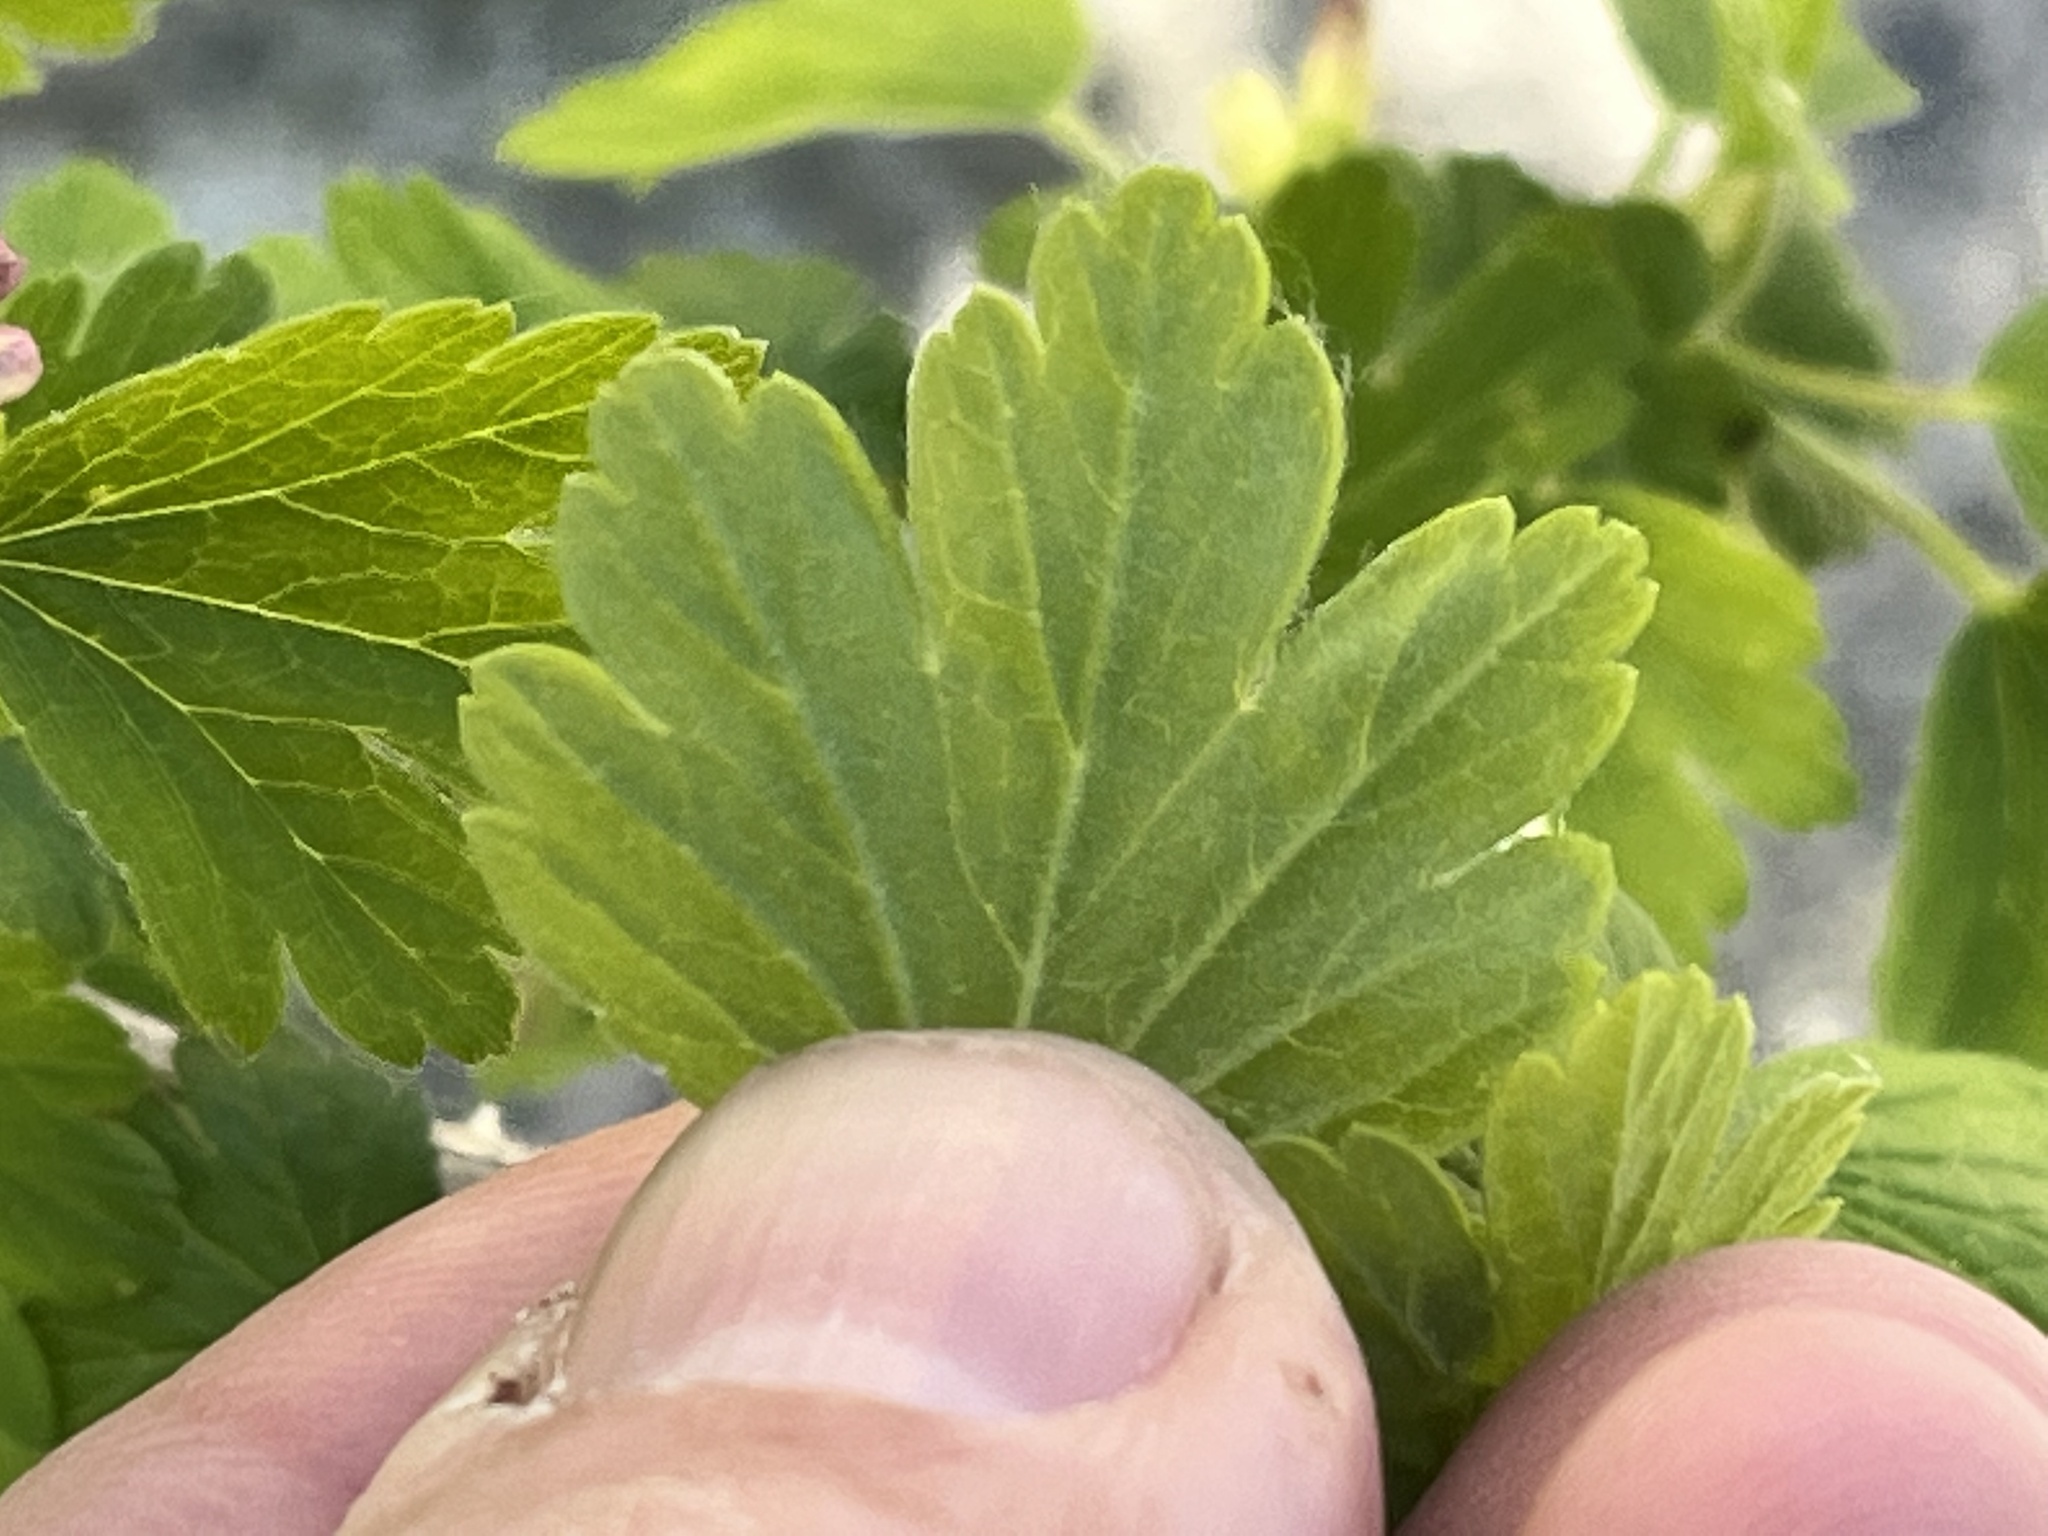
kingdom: Plantae
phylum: Tracheophyta
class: Magnoliopsida
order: Saxifragales
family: Grossulariaceae
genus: Ribes
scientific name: Ribes hirtellum
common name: Hairy gooseberry
